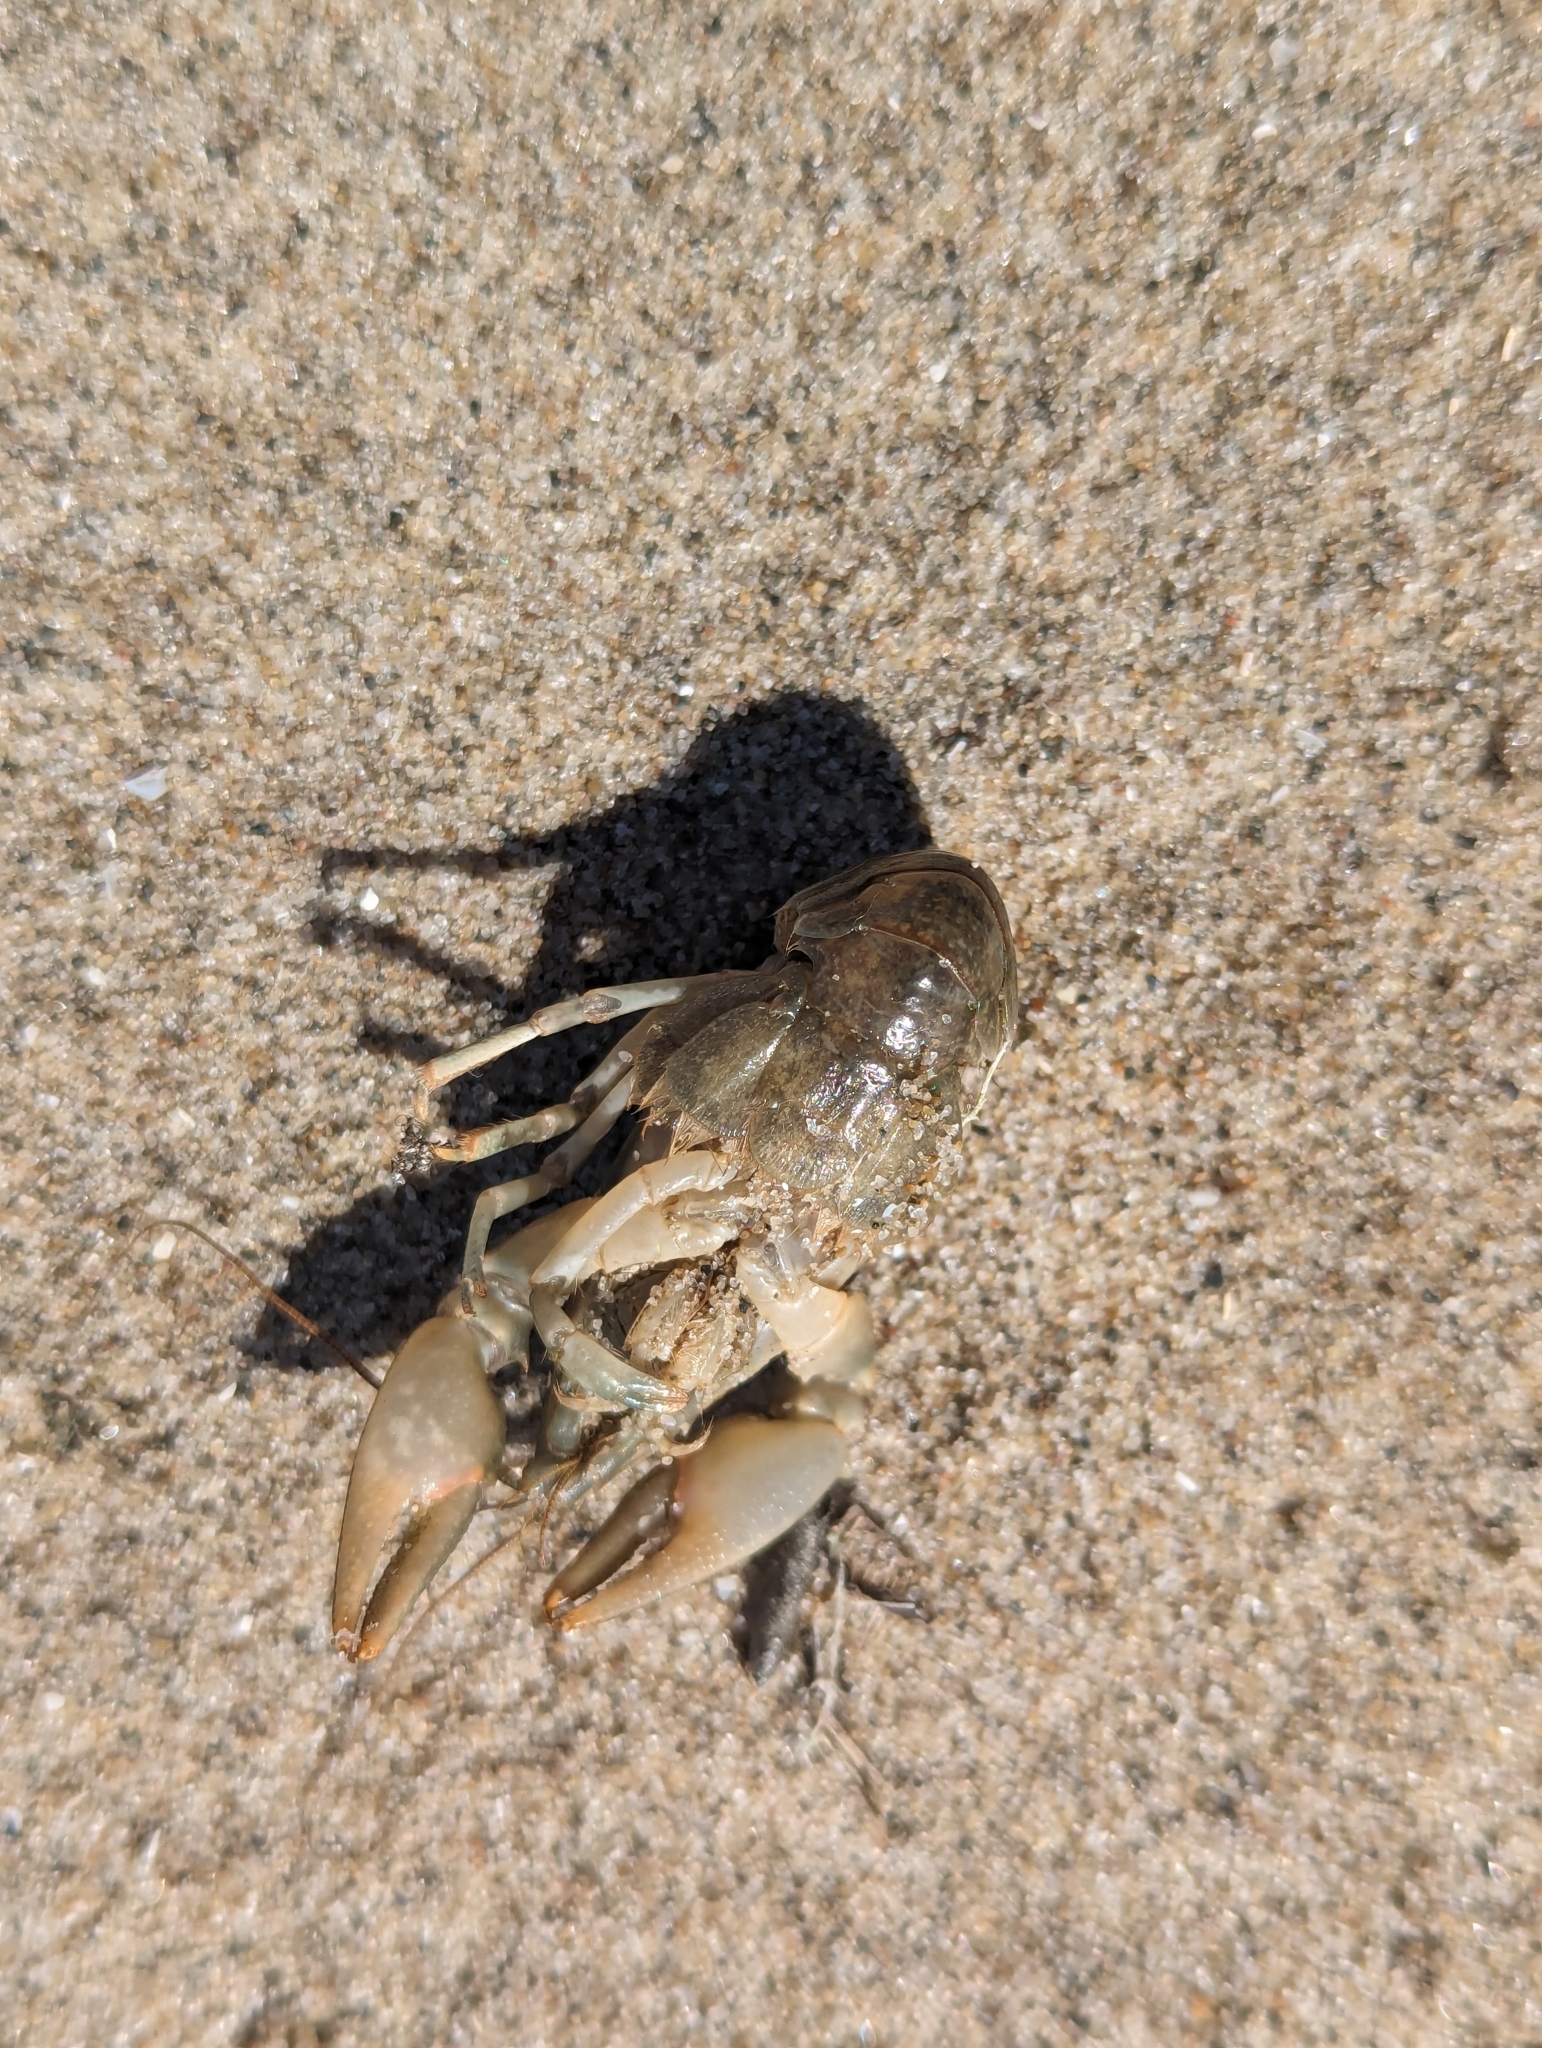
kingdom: Animalia
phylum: Arthropoda
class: Malacostraca
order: Decapoda
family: Cambaridae
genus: Faxonius
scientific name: Faxonius propinquus
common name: Northern clearwater crayfish
